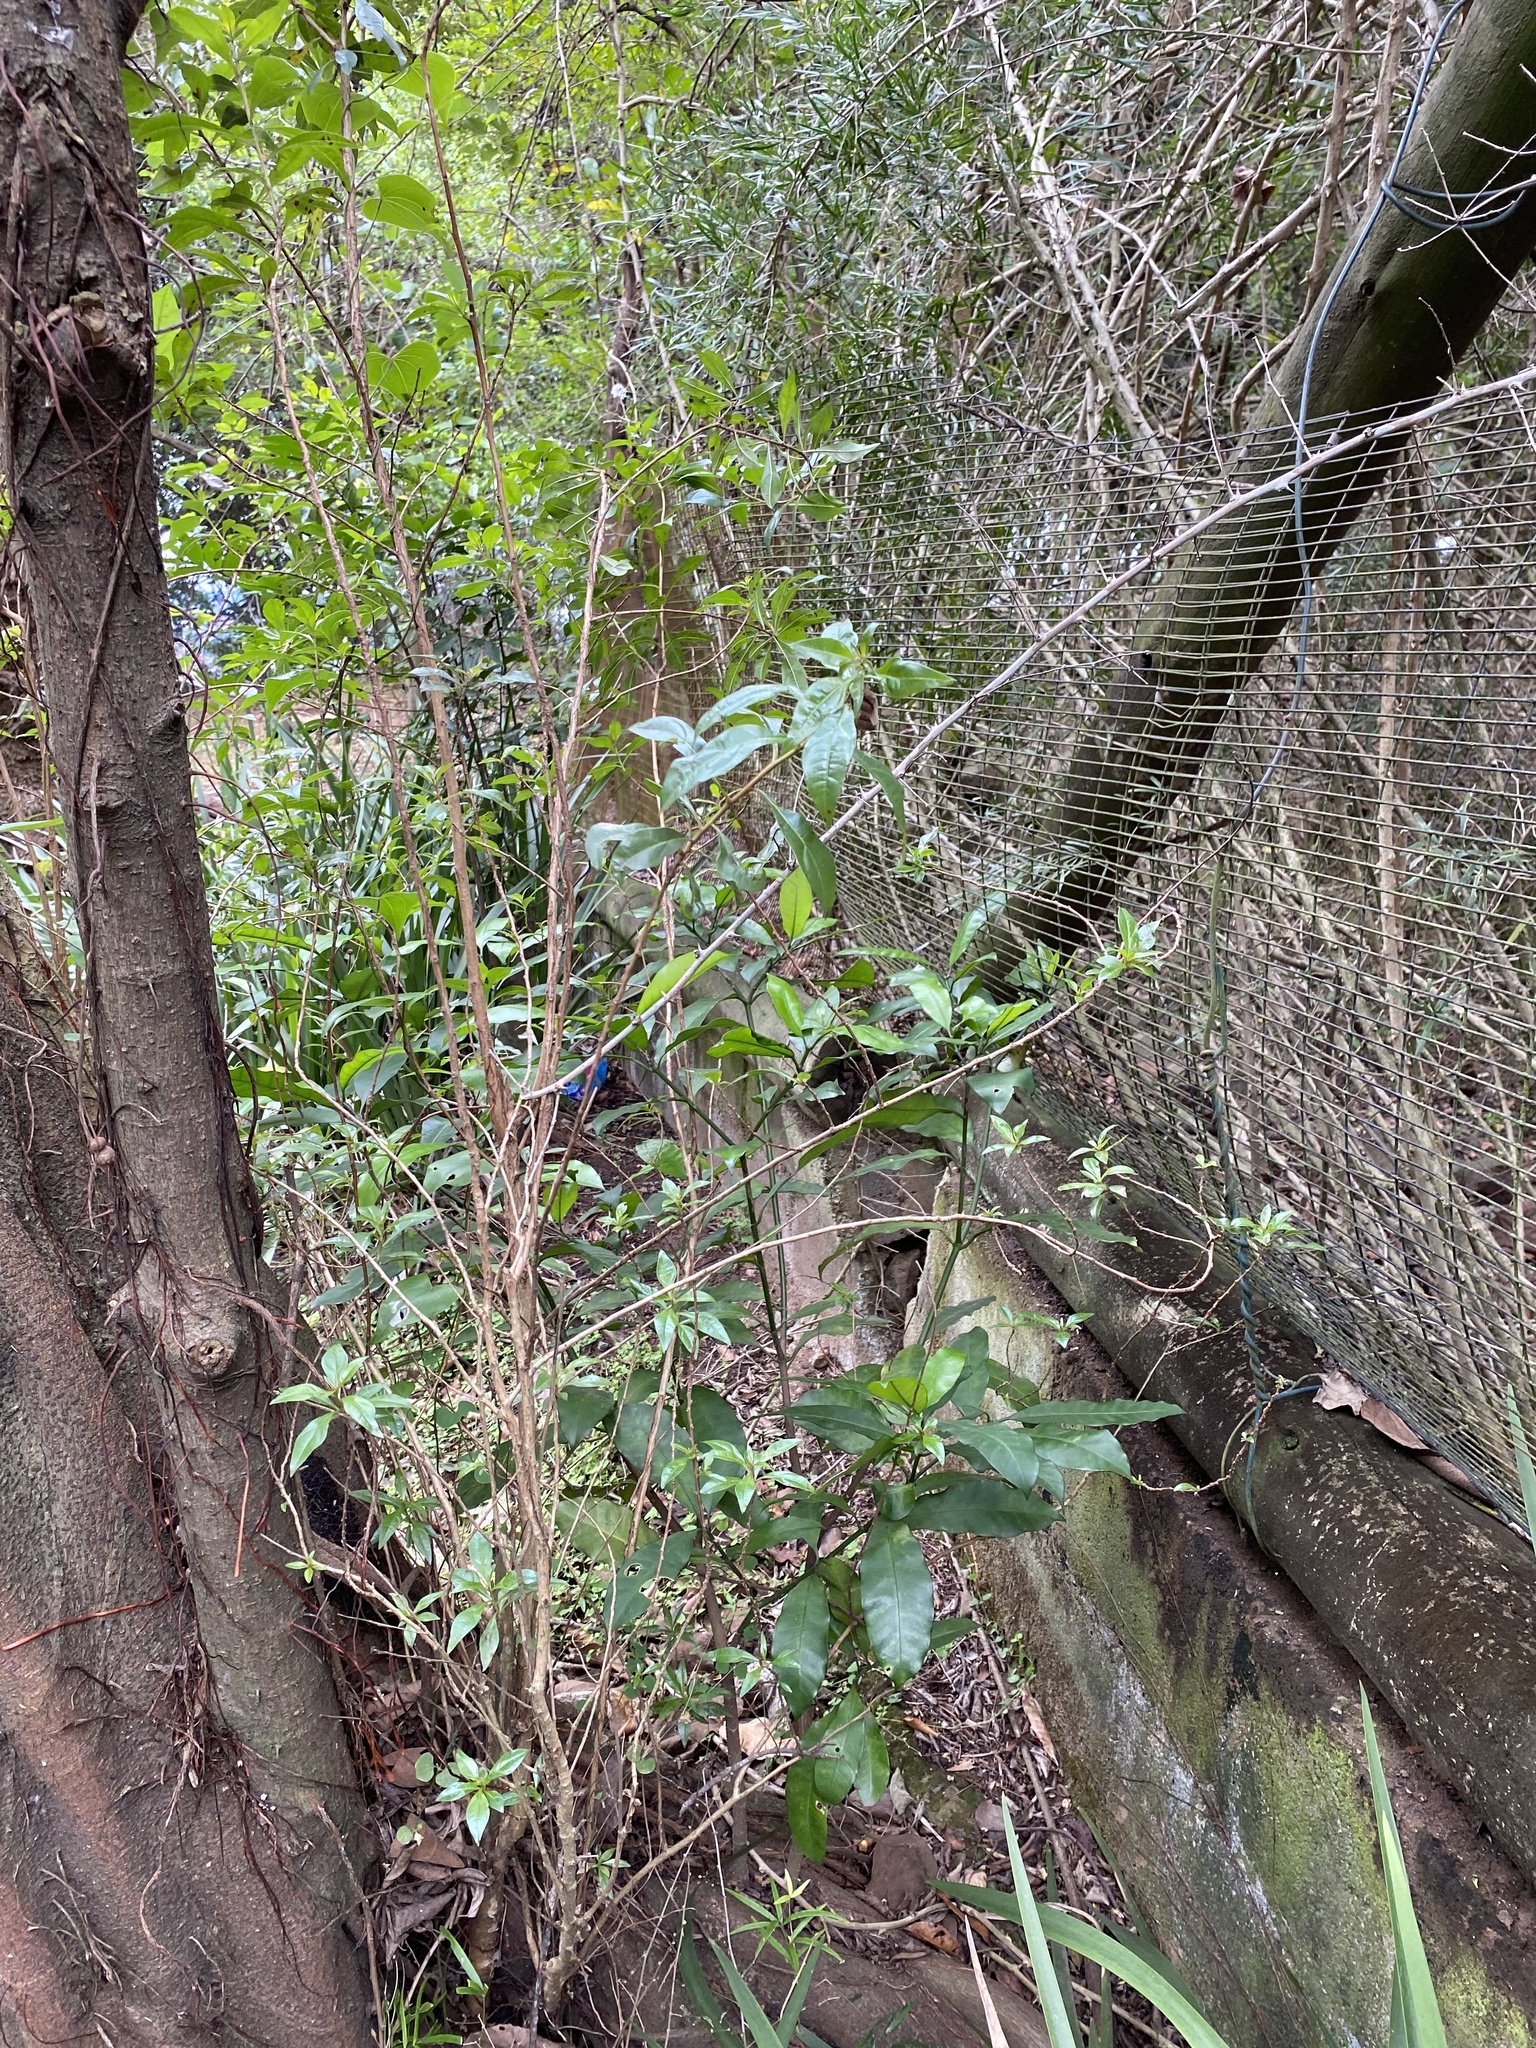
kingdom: Plantae
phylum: Tracheophyta
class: Magnoliopsida
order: Myrtales
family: Myrtaceae
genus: Heteropyxis
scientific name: Heteropyxis natalensis
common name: Lavender tree
